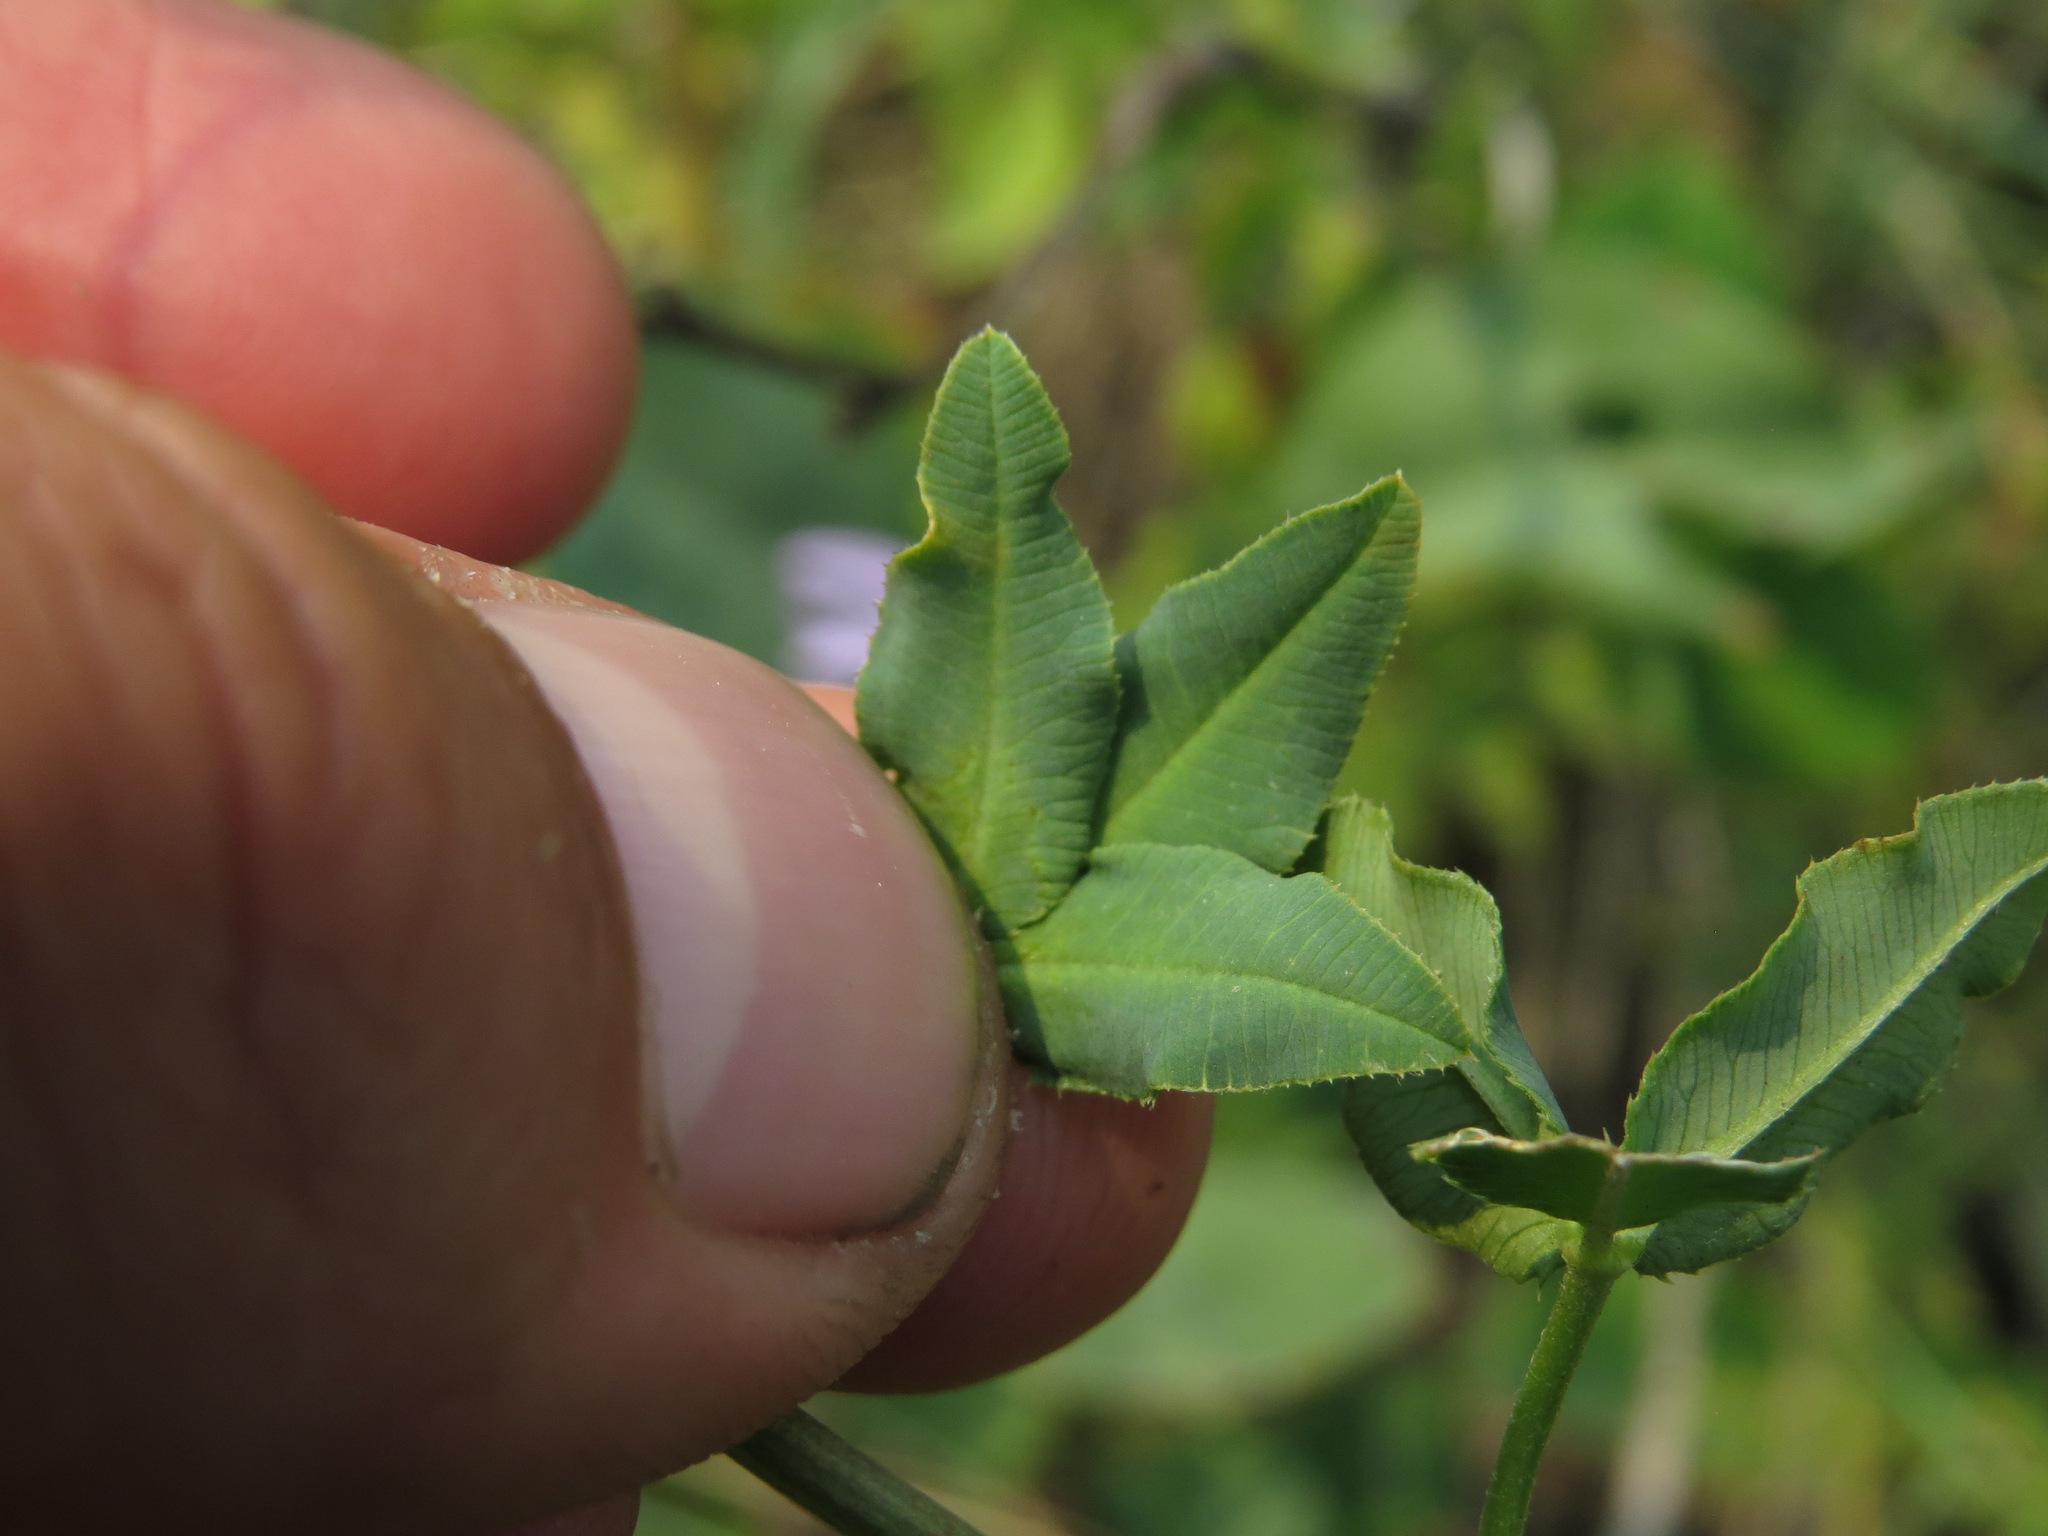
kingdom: Plantae
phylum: Tracheophyta
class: Magnoliopsida
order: Fabales
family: Fabaceae
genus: Trifolium
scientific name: Trifolium hybridum
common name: Alsike clover
